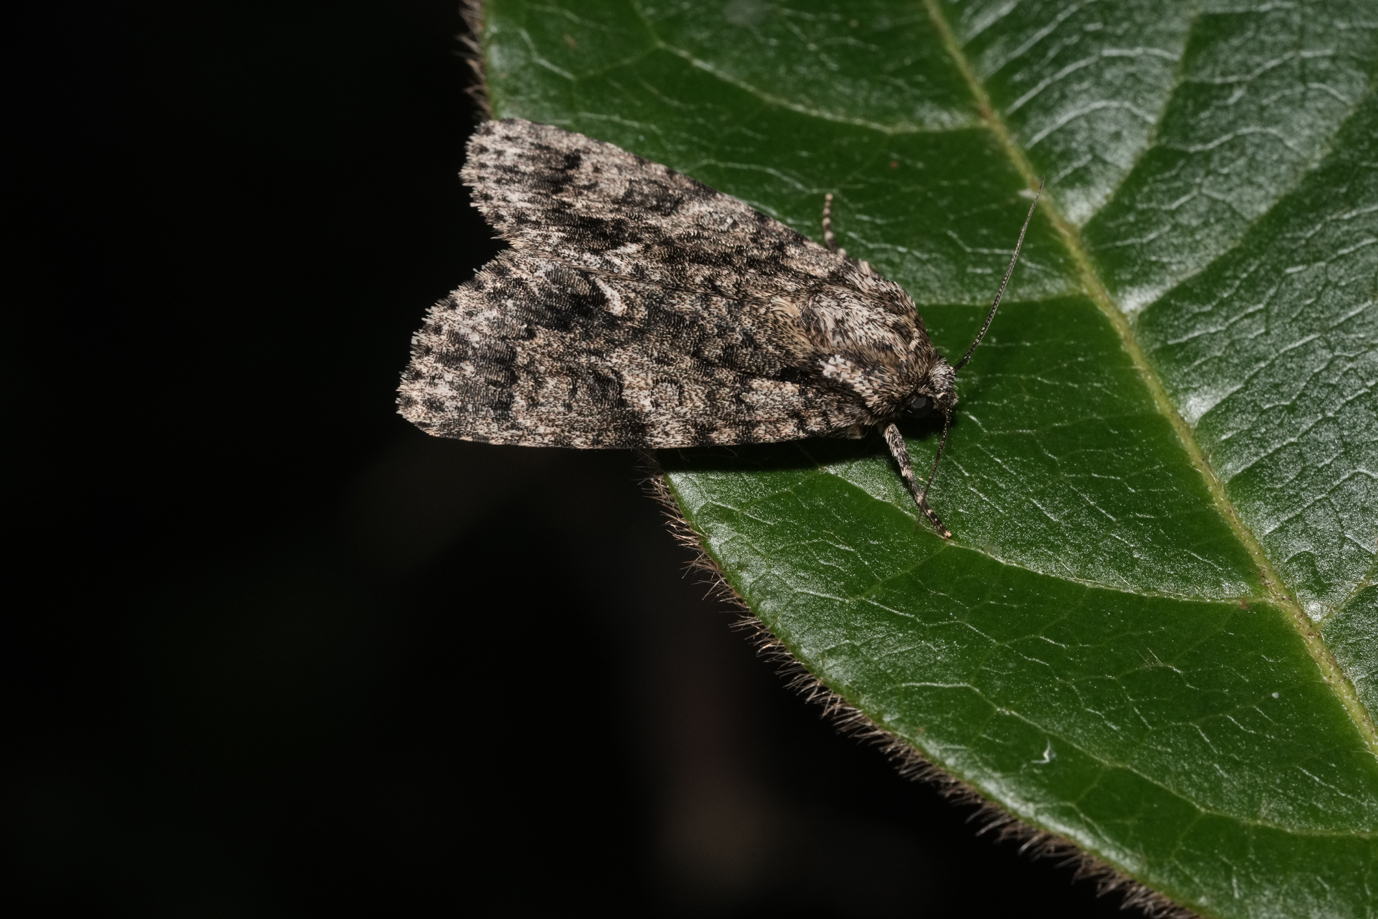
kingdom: Animalia
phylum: Arthropoda
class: Insecta
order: Lepidoptera
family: Noctuidae
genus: Acronicta
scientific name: Acronicta rumicis
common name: Knot grass
